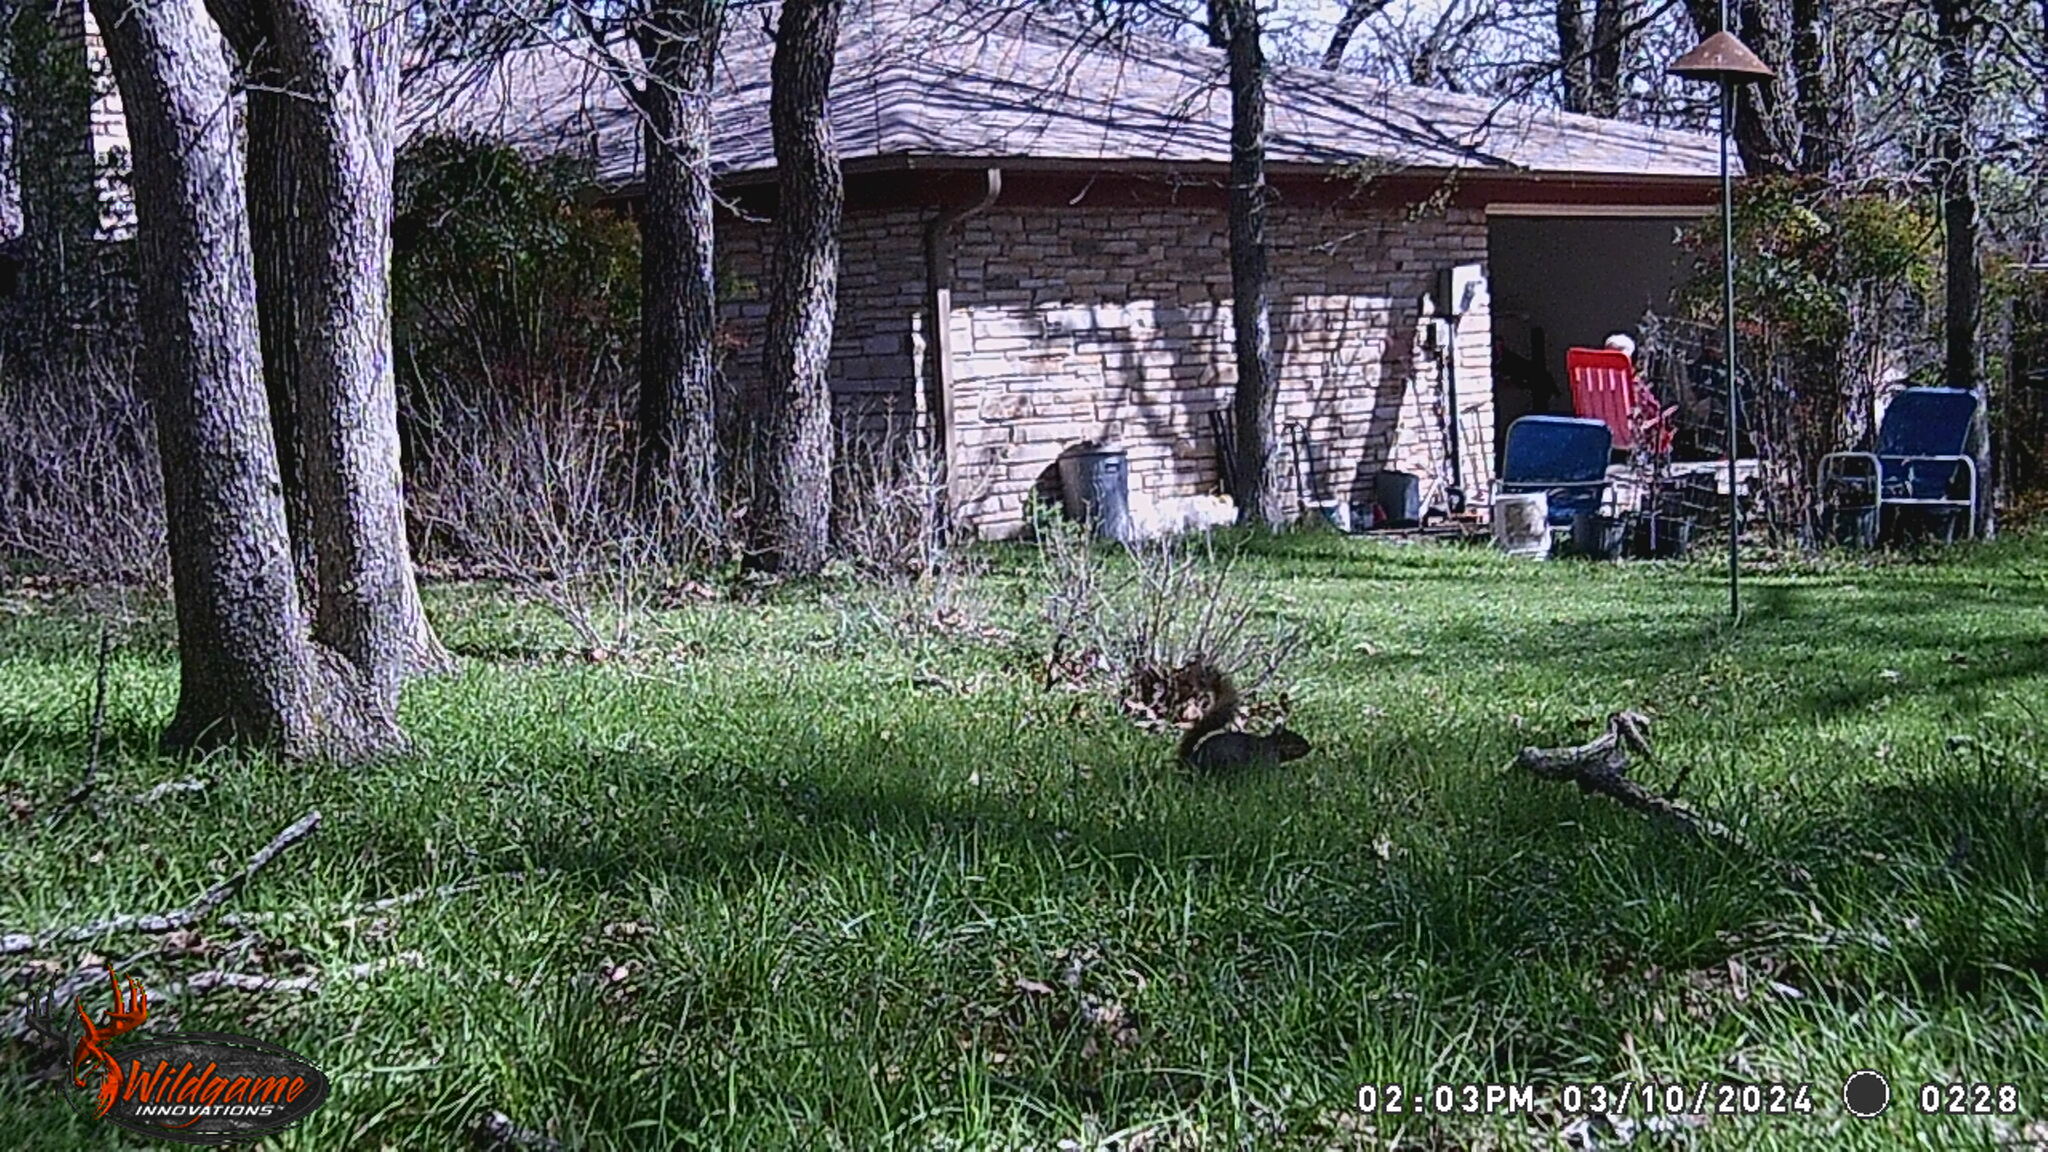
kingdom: Animalia
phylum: Chordata
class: Mammalia
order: Rodentia
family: Sciuridae
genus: Sciurus
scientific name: Sciurus niger
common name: Fox squirrel
